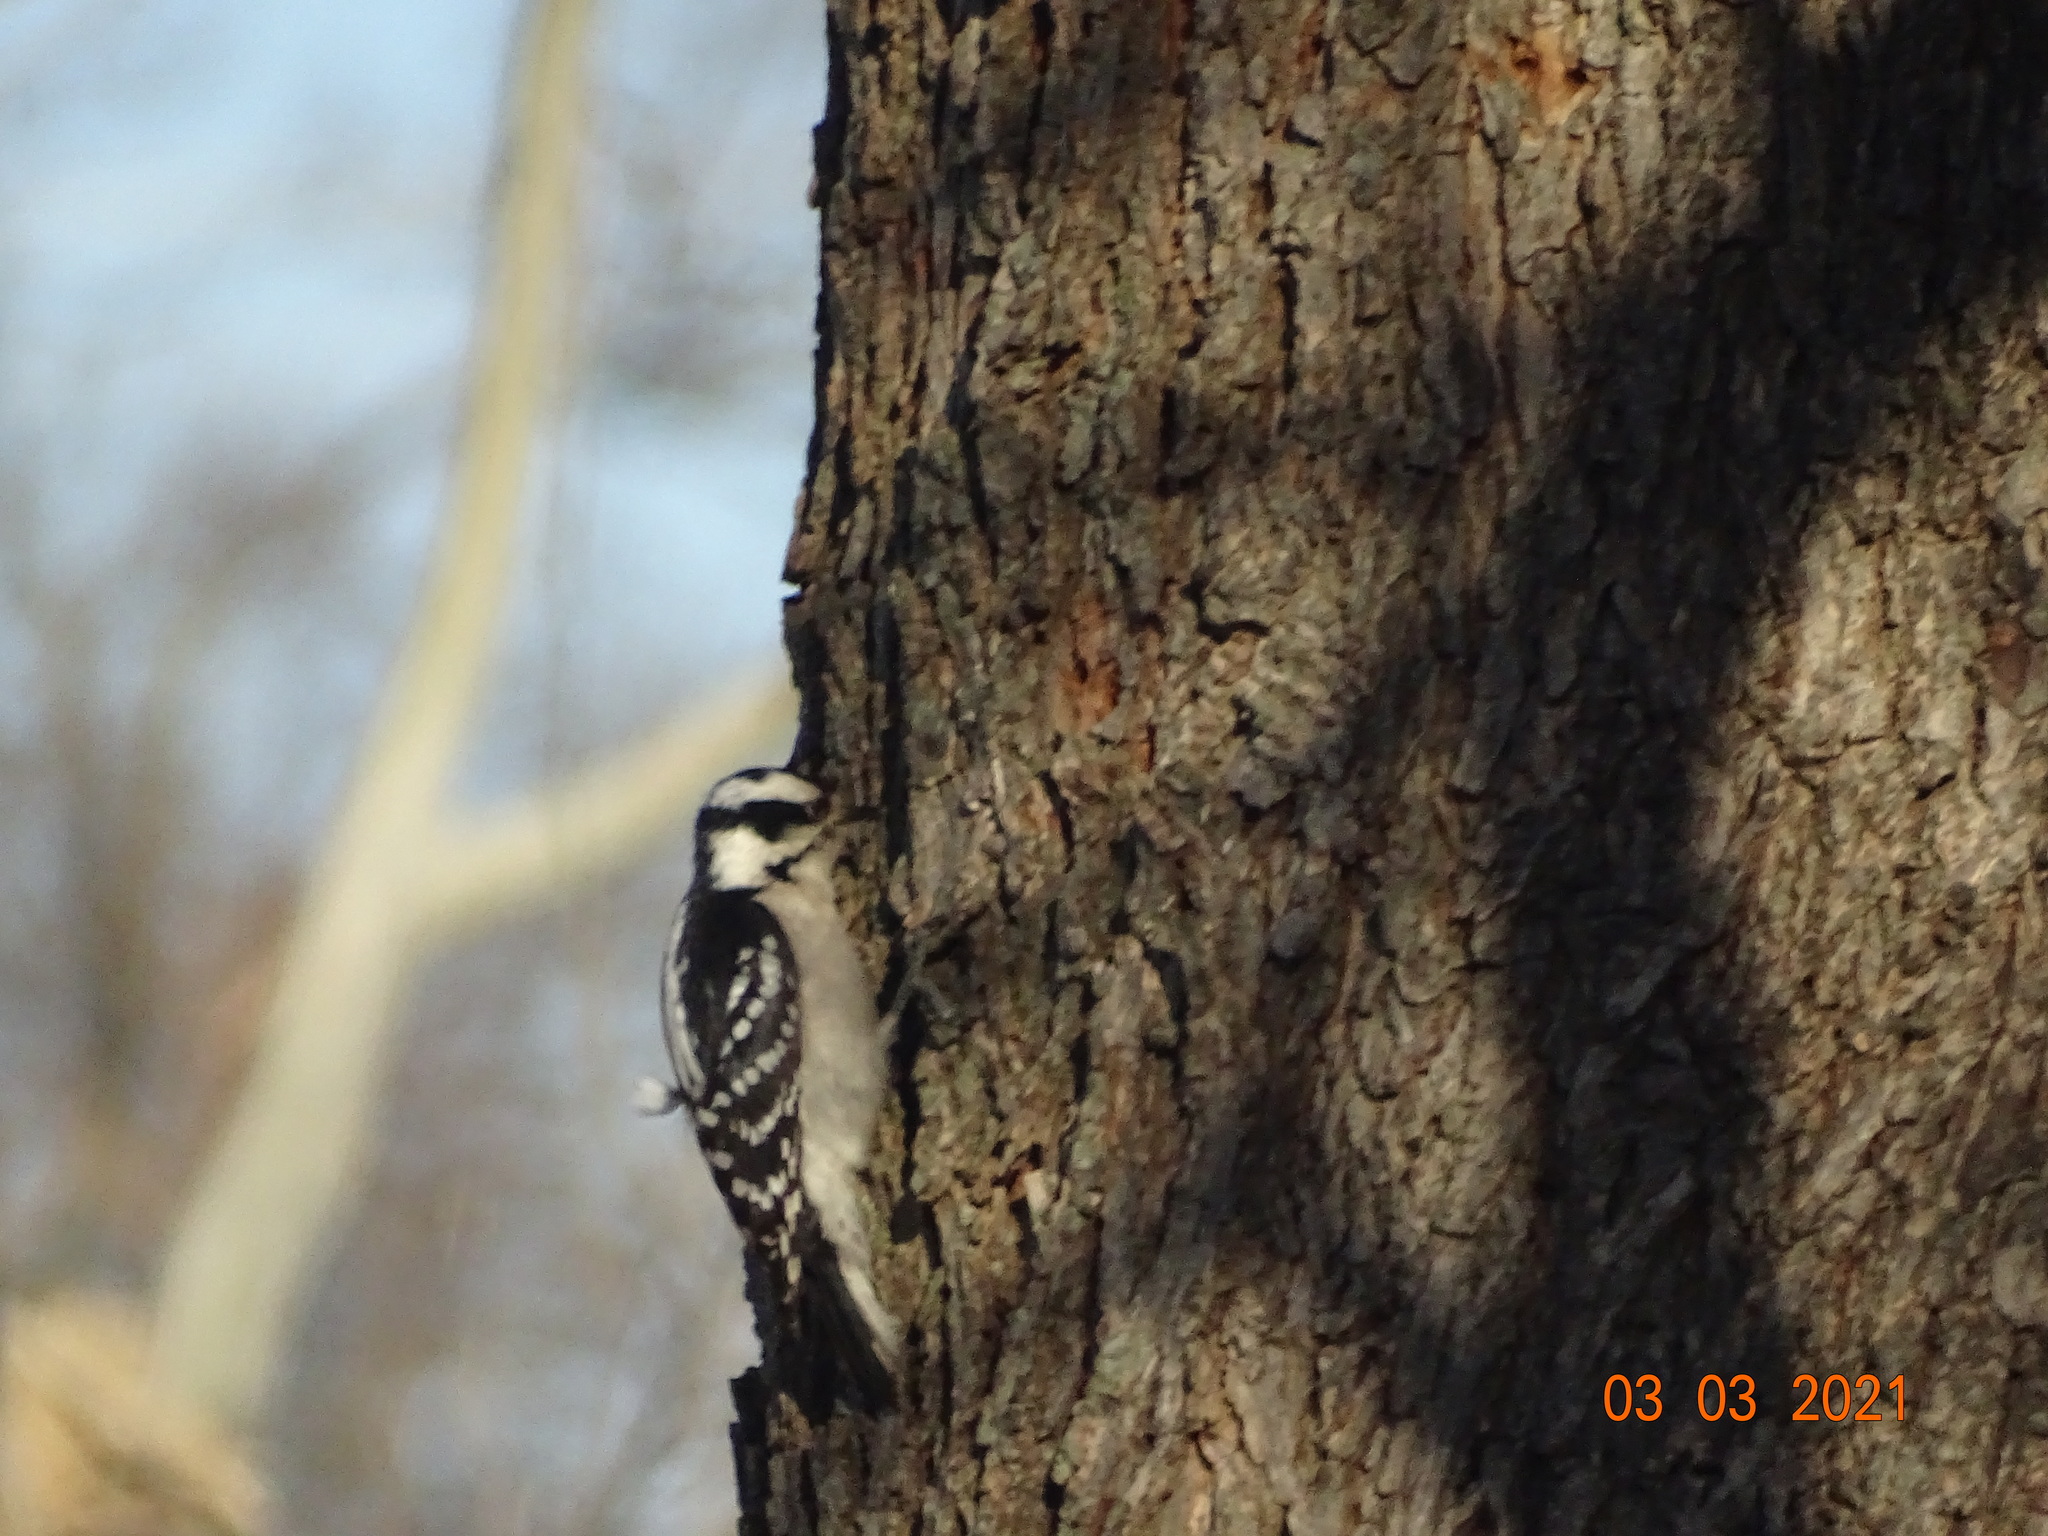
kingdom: Animalia
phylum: Chordata
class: Aves
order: Piciformes
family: Picidae
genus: Dryobates
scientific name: Dryobates pubescens
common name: Downy woodpecker
